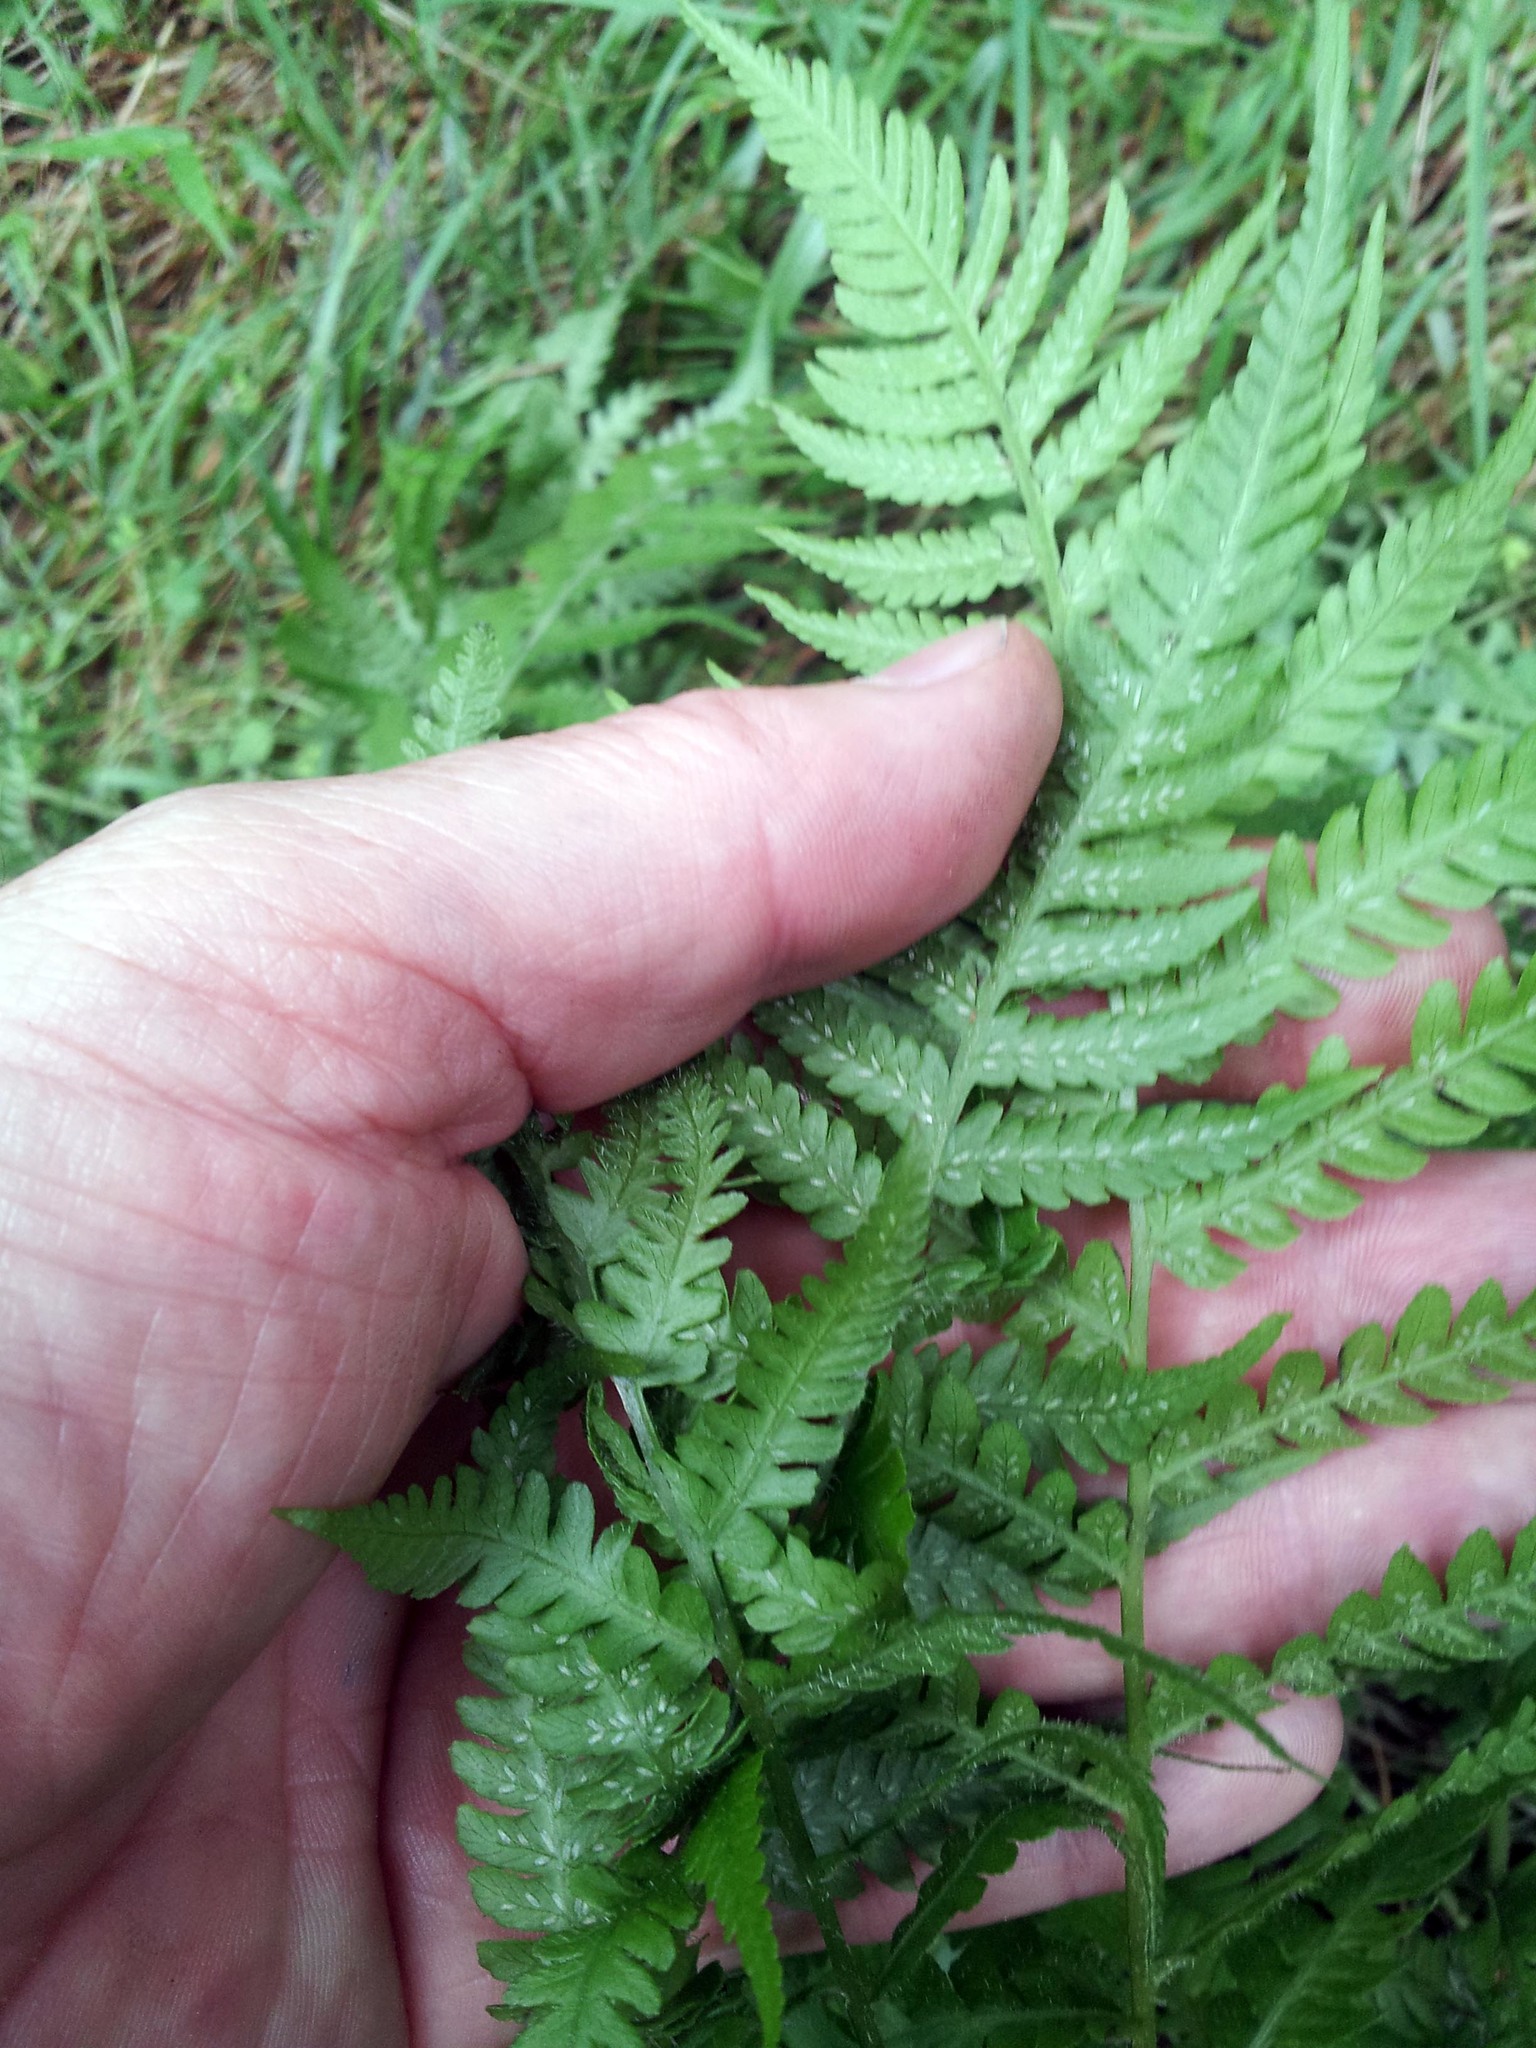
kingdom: Plantae
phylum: Tracheophyta
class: Polypodiopsida
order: Polypodiales
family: Athyriaceae
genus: Diplazium
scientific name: Diplazium congruum
